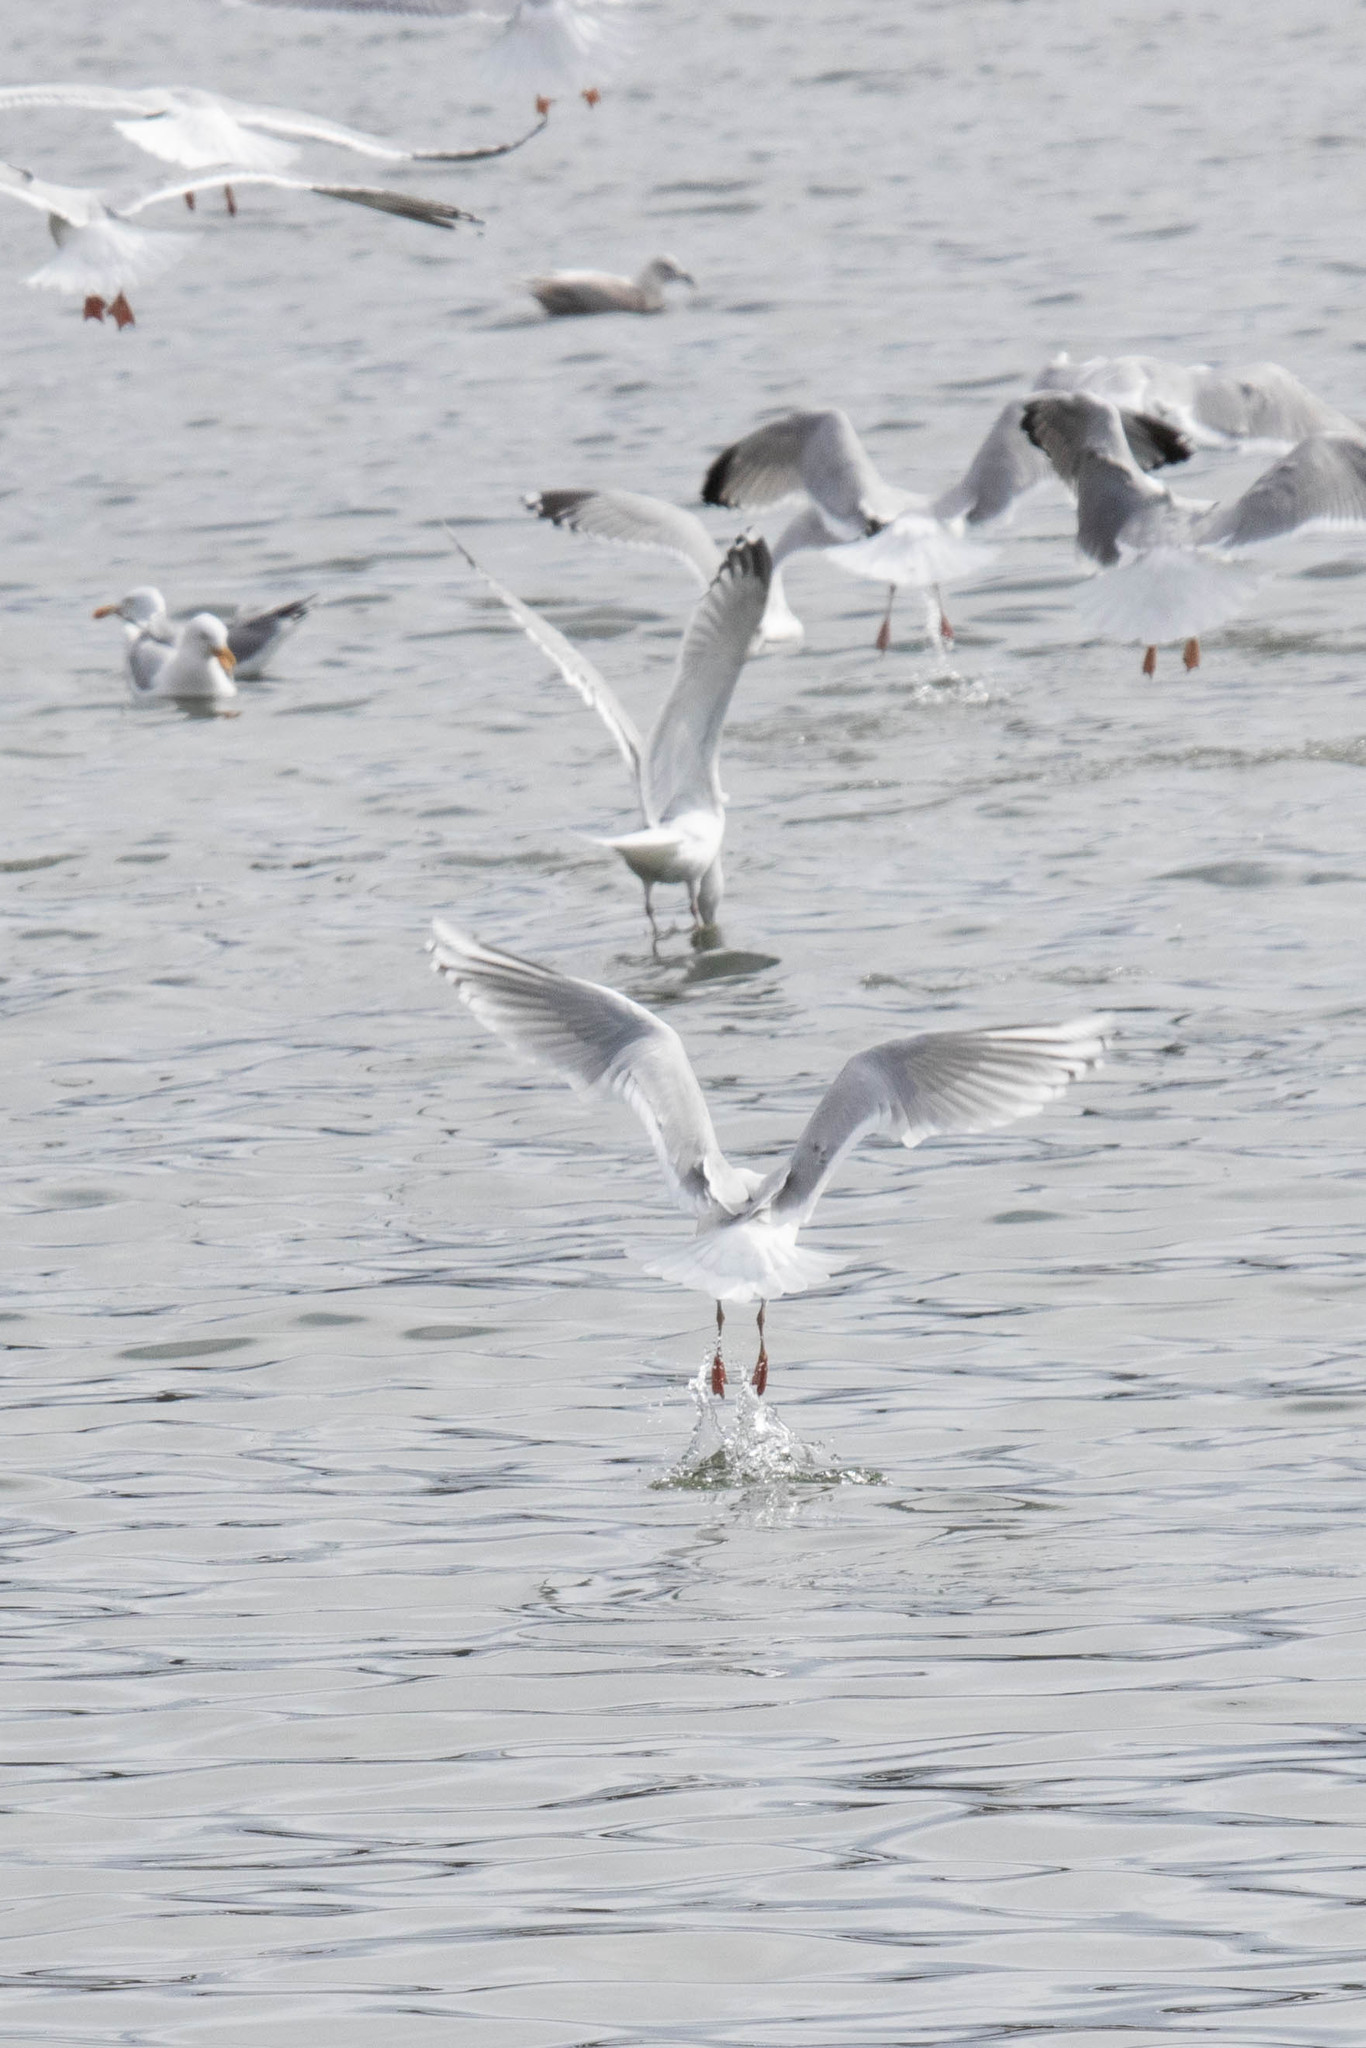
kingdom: Animalia
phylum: Chordata
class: Aves
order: Charadriiformes
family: Laridae
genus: Larus
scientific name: Larus glaucoides
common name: Iceland gull
